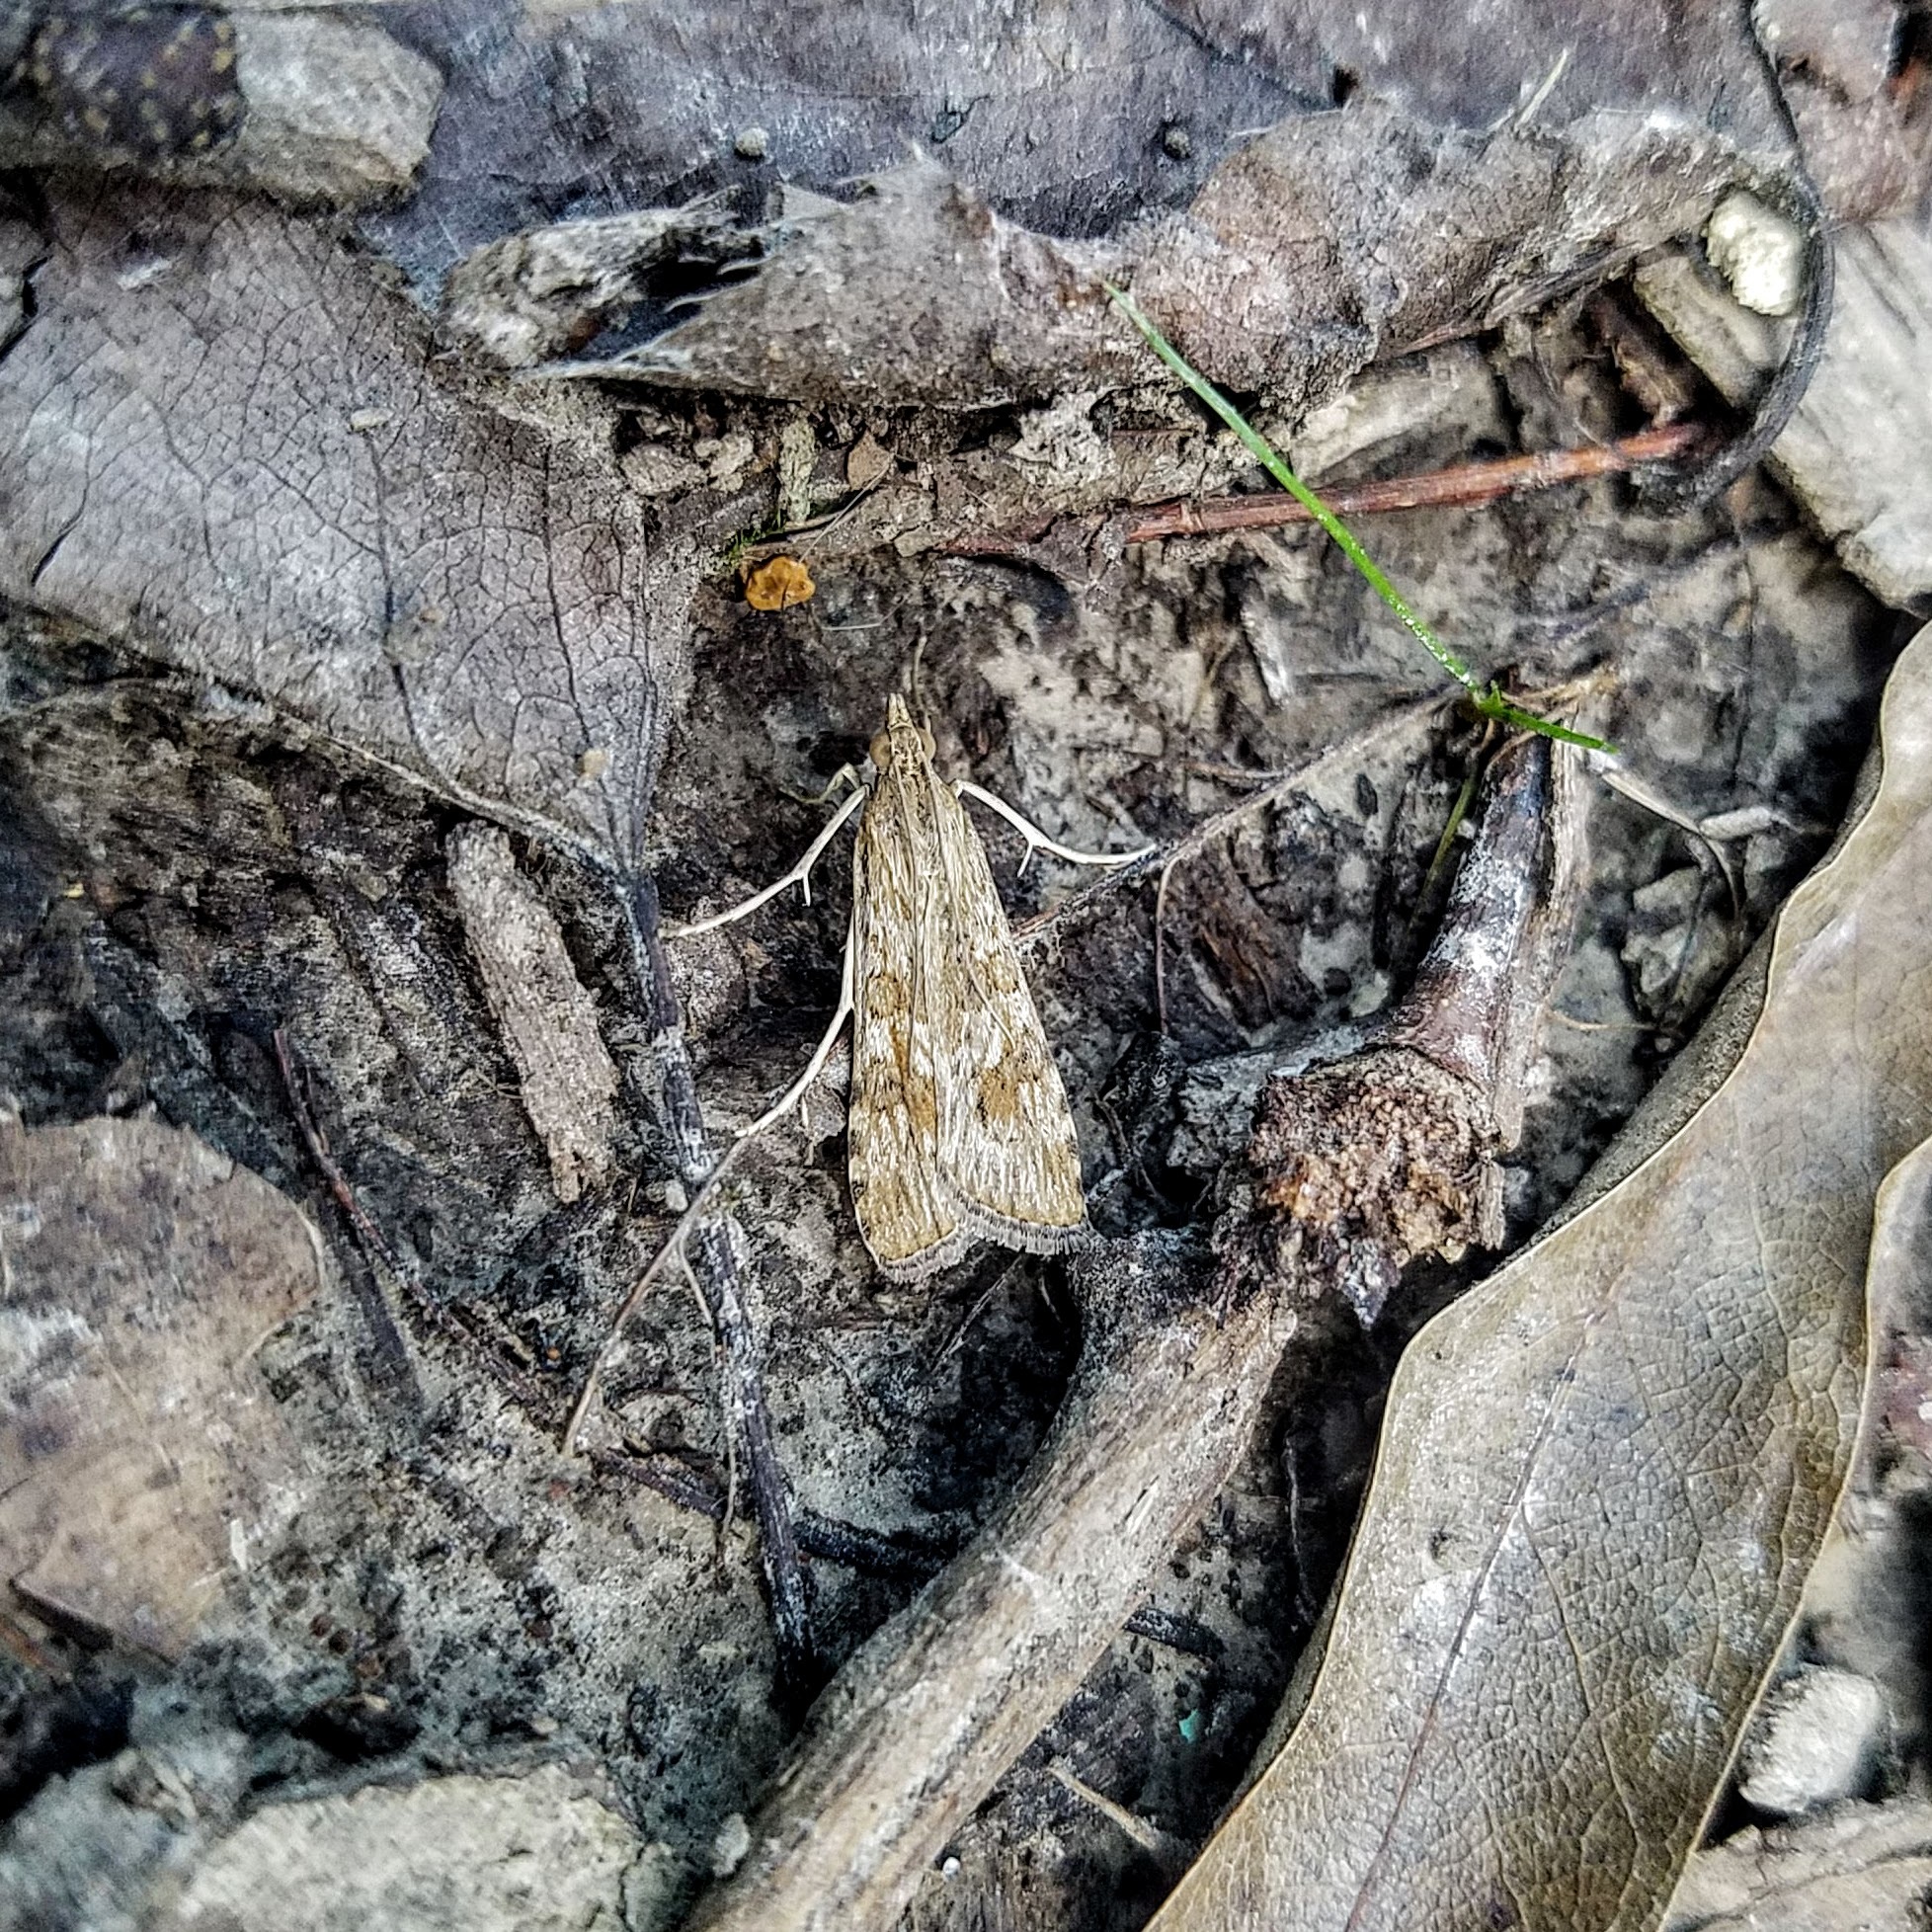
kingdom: Animalia
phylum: Arthropoda
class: Insecta
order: Lepidoptera
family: Crambidae
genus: Nomophila
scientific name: Nomophila nearctica
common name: American rush veneer
